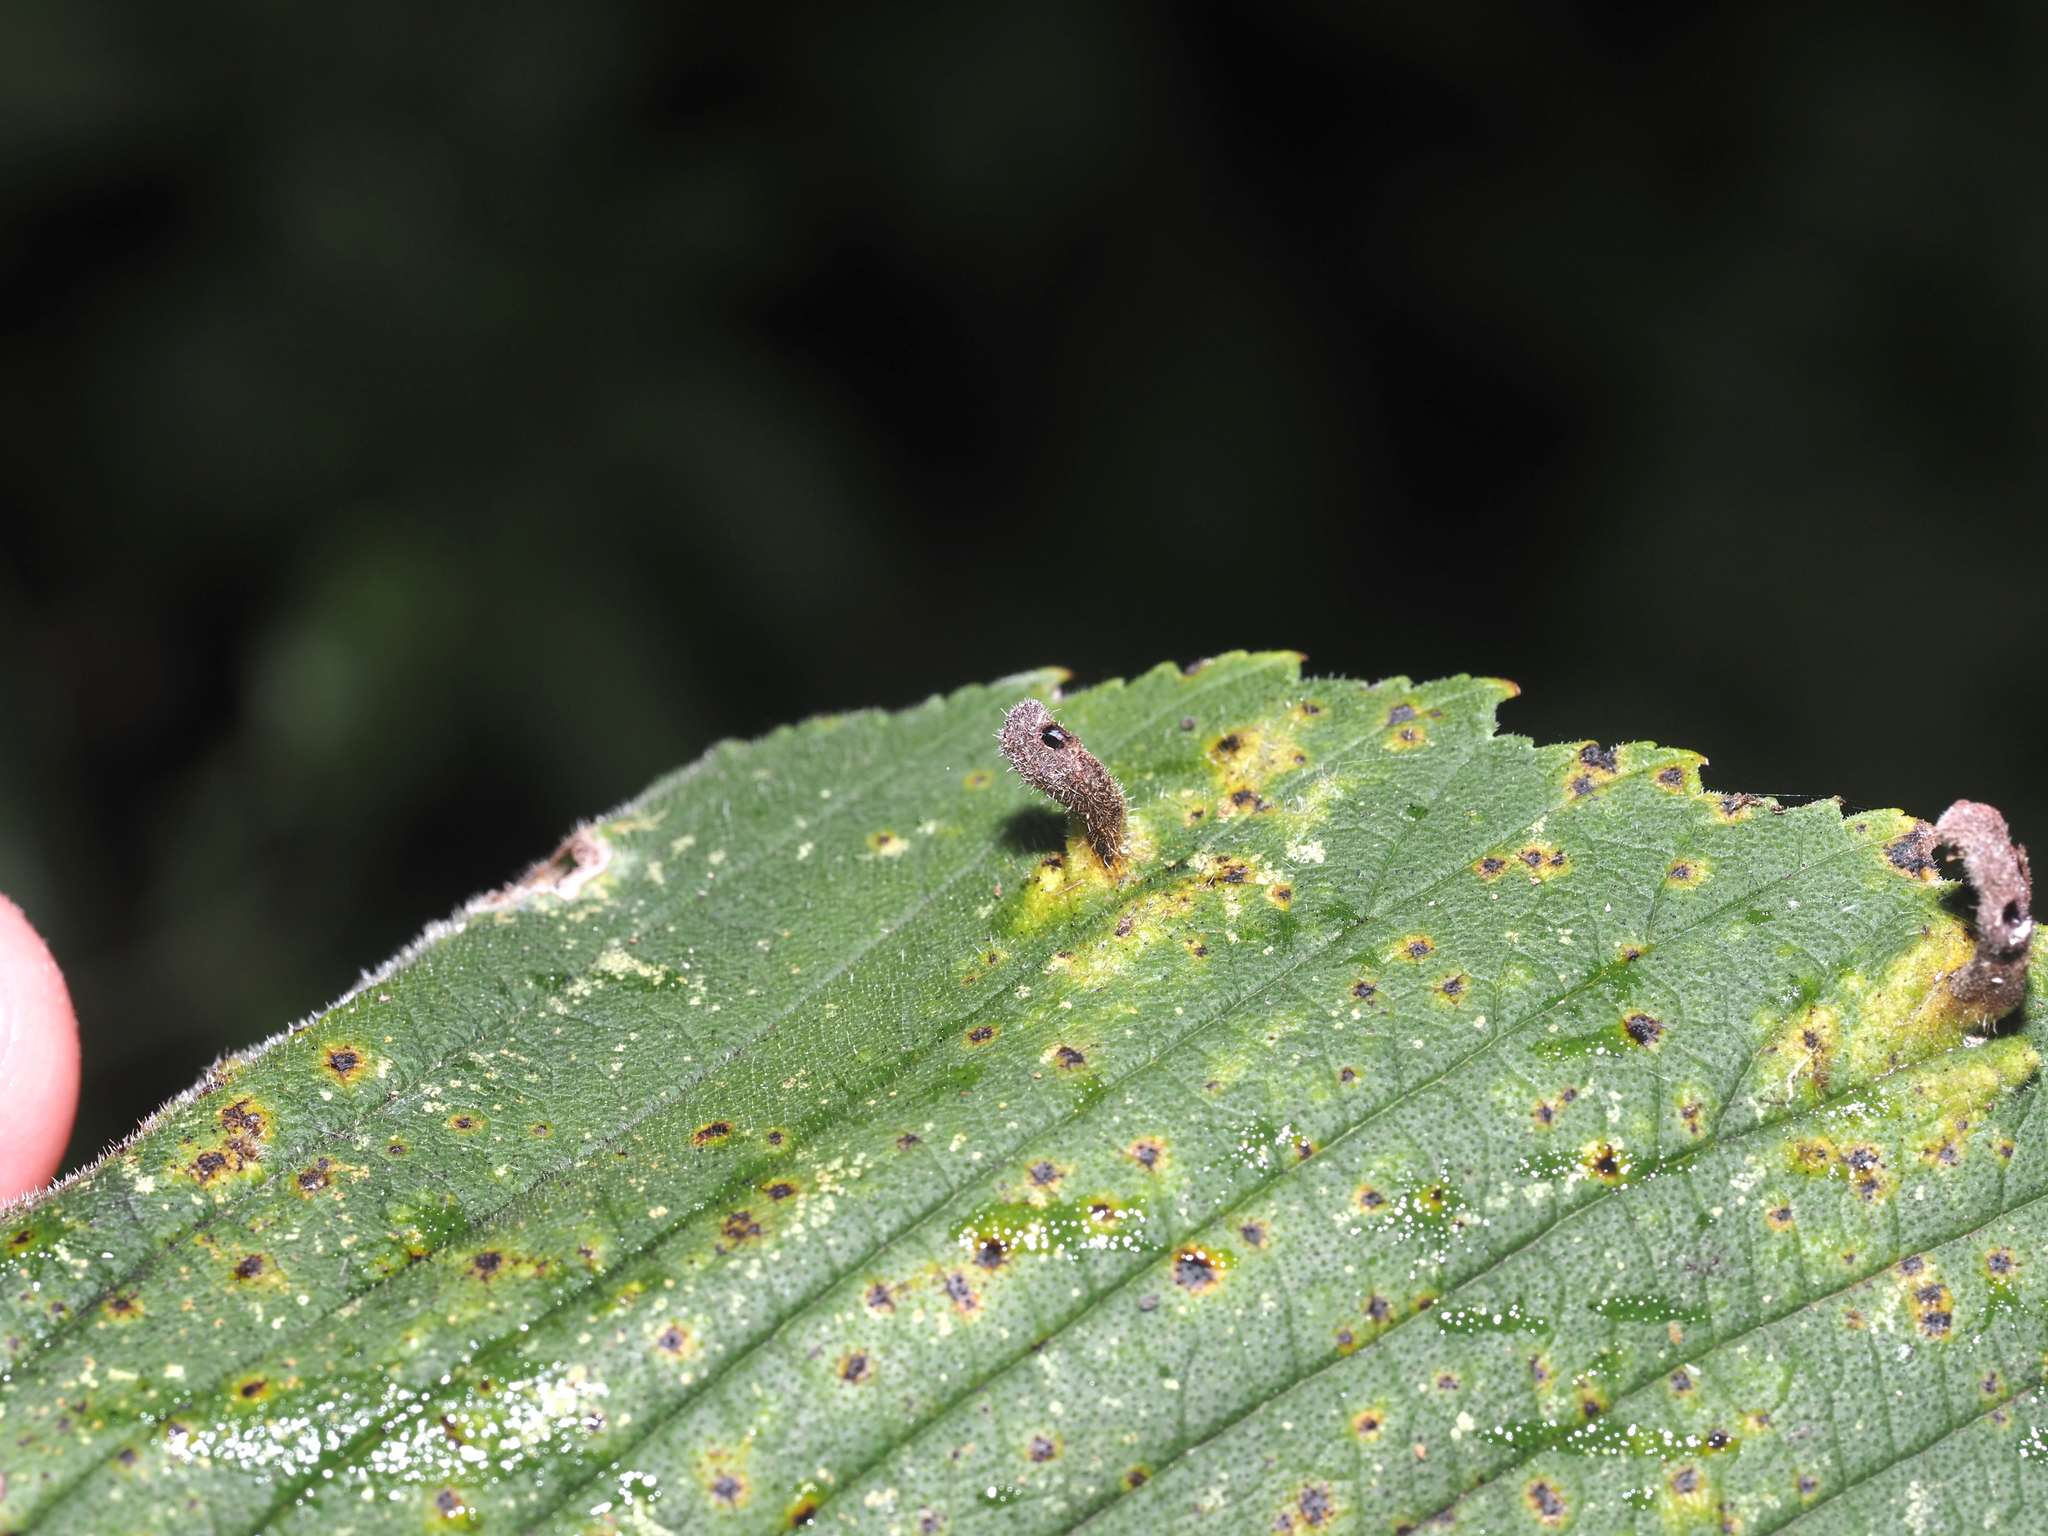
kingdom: Animalia
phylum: Arthropoda
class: Insecta
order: Hemiptera
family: Aphididae
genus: Tetraneura
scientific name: Tetraneura nigriabdominalis
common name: Aphid
